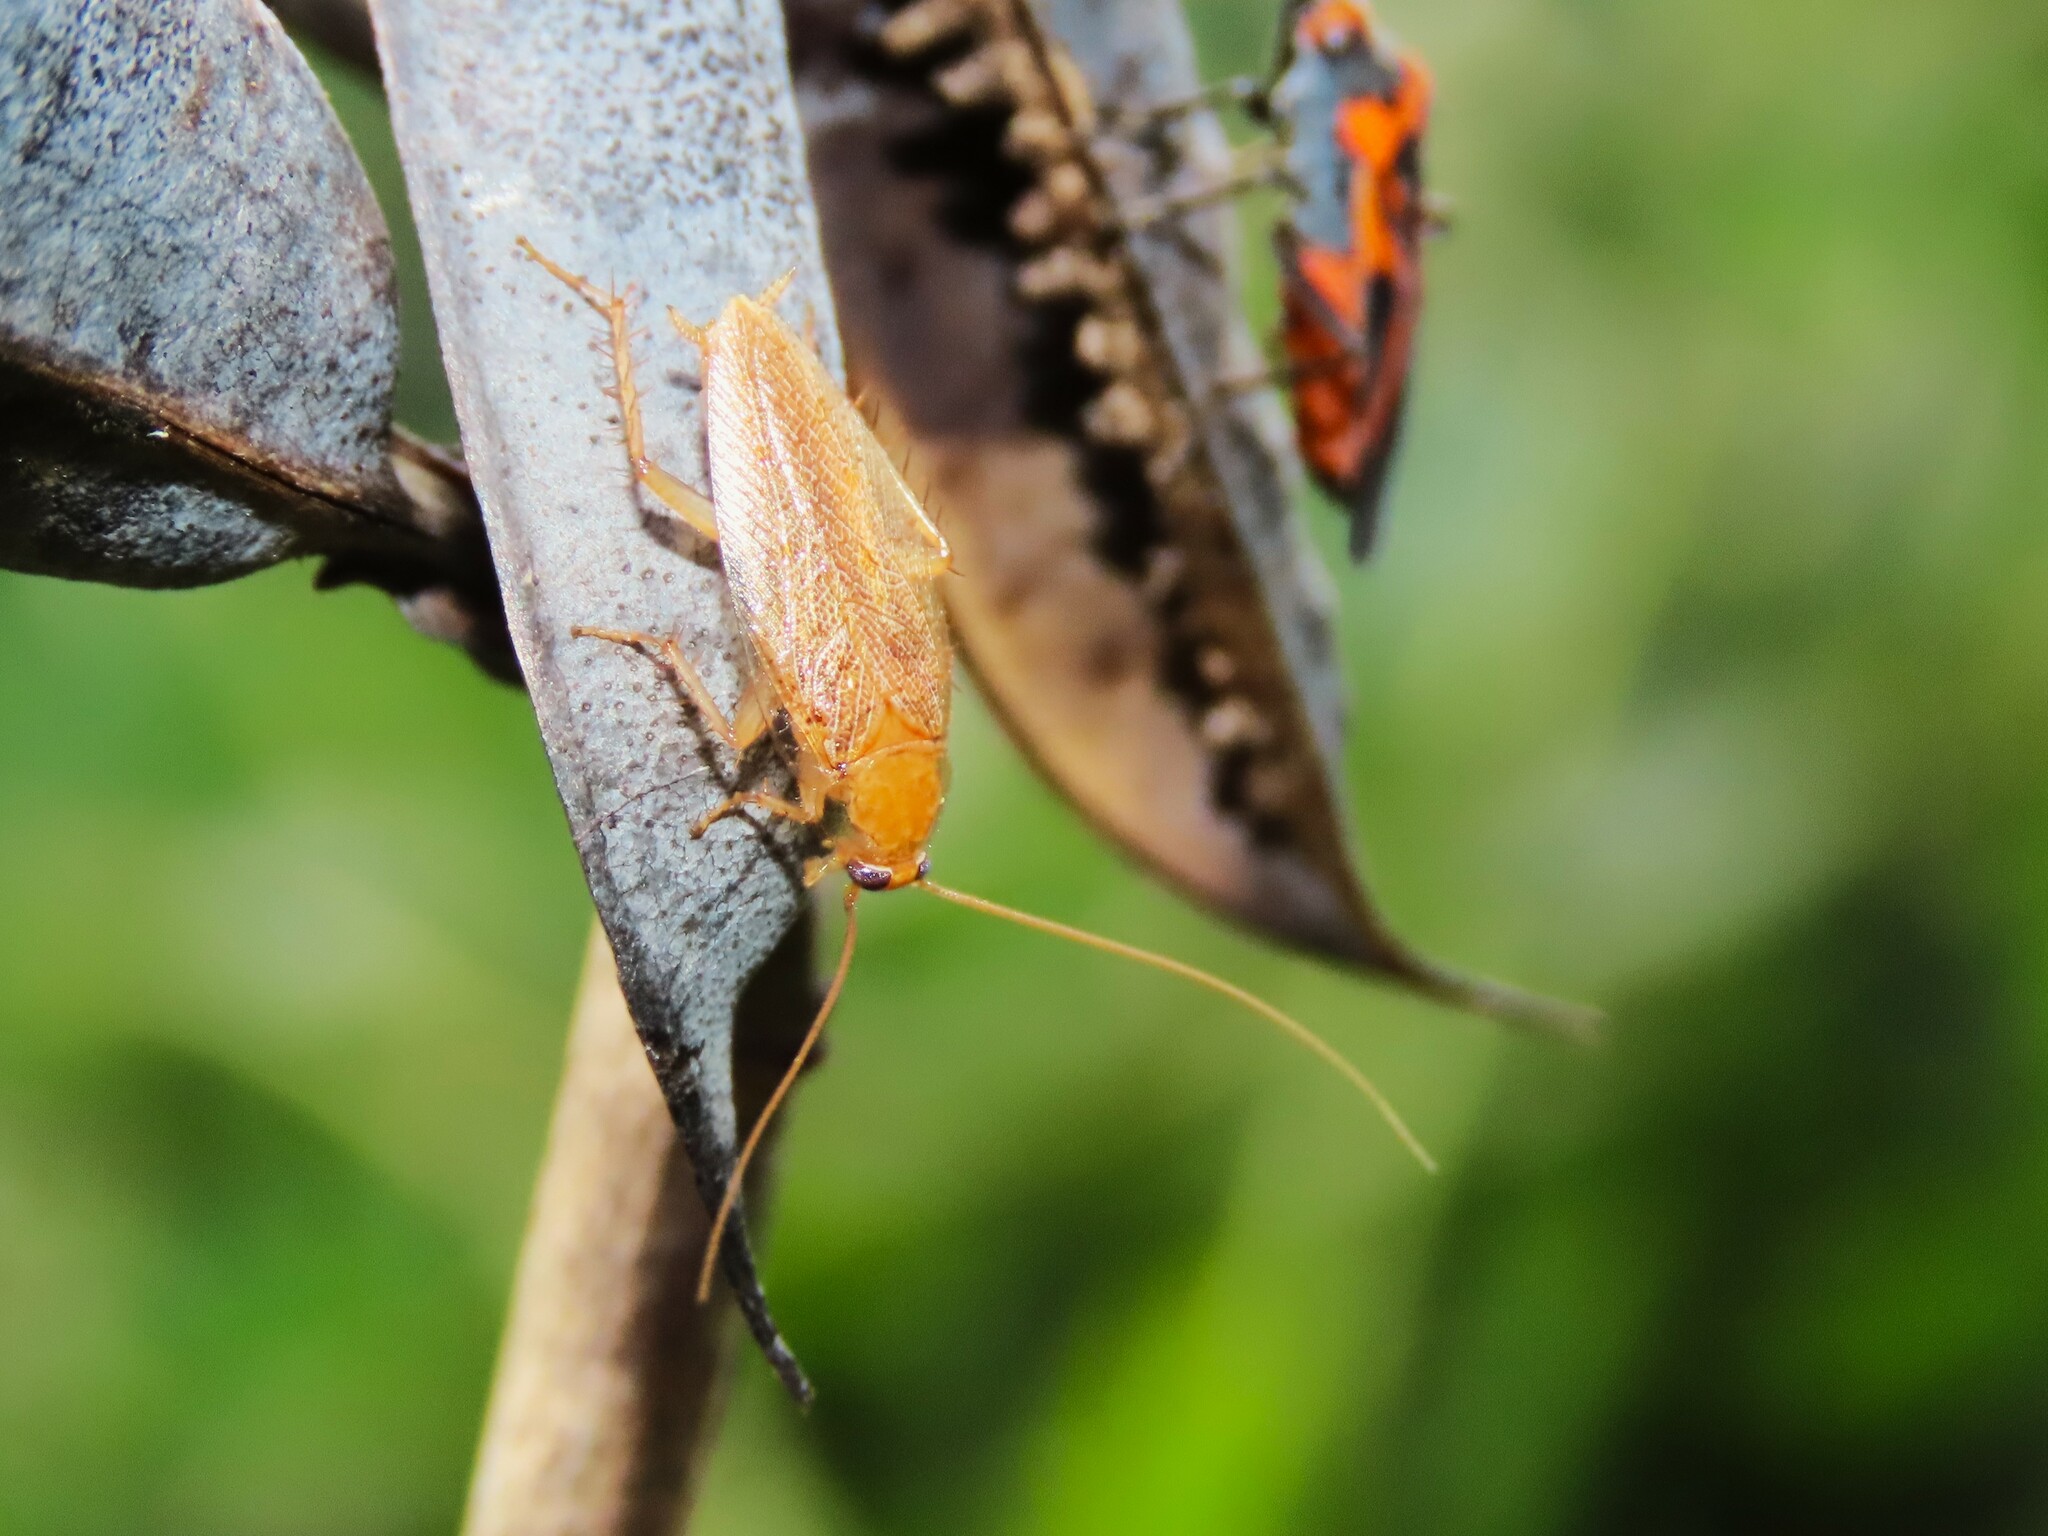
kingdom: Animalia
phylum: Arthropoda
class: Insecta
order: Blattodea
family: Ectobiidae
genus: Ectobius
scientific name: Ectobius pallidus
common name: Tawny cockroach
